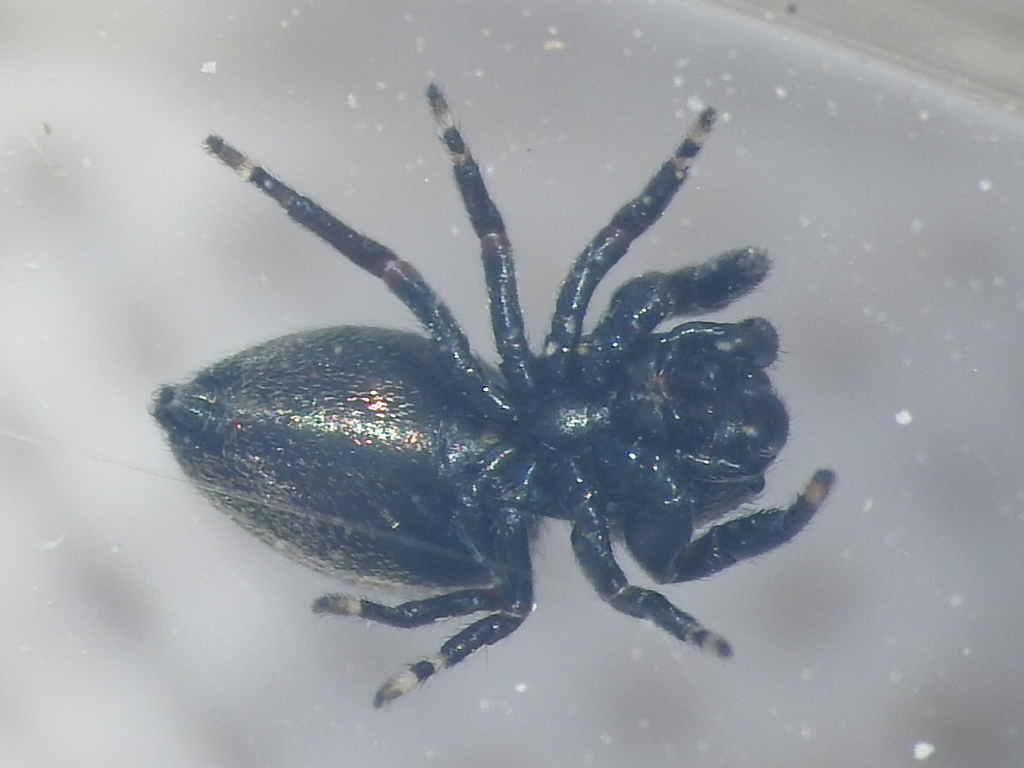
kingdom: Animalia
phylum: Arthropoda
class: Arachnida
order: Araneae
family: Salticidae
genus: Sassacus
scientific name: Sassacus papenhoei
